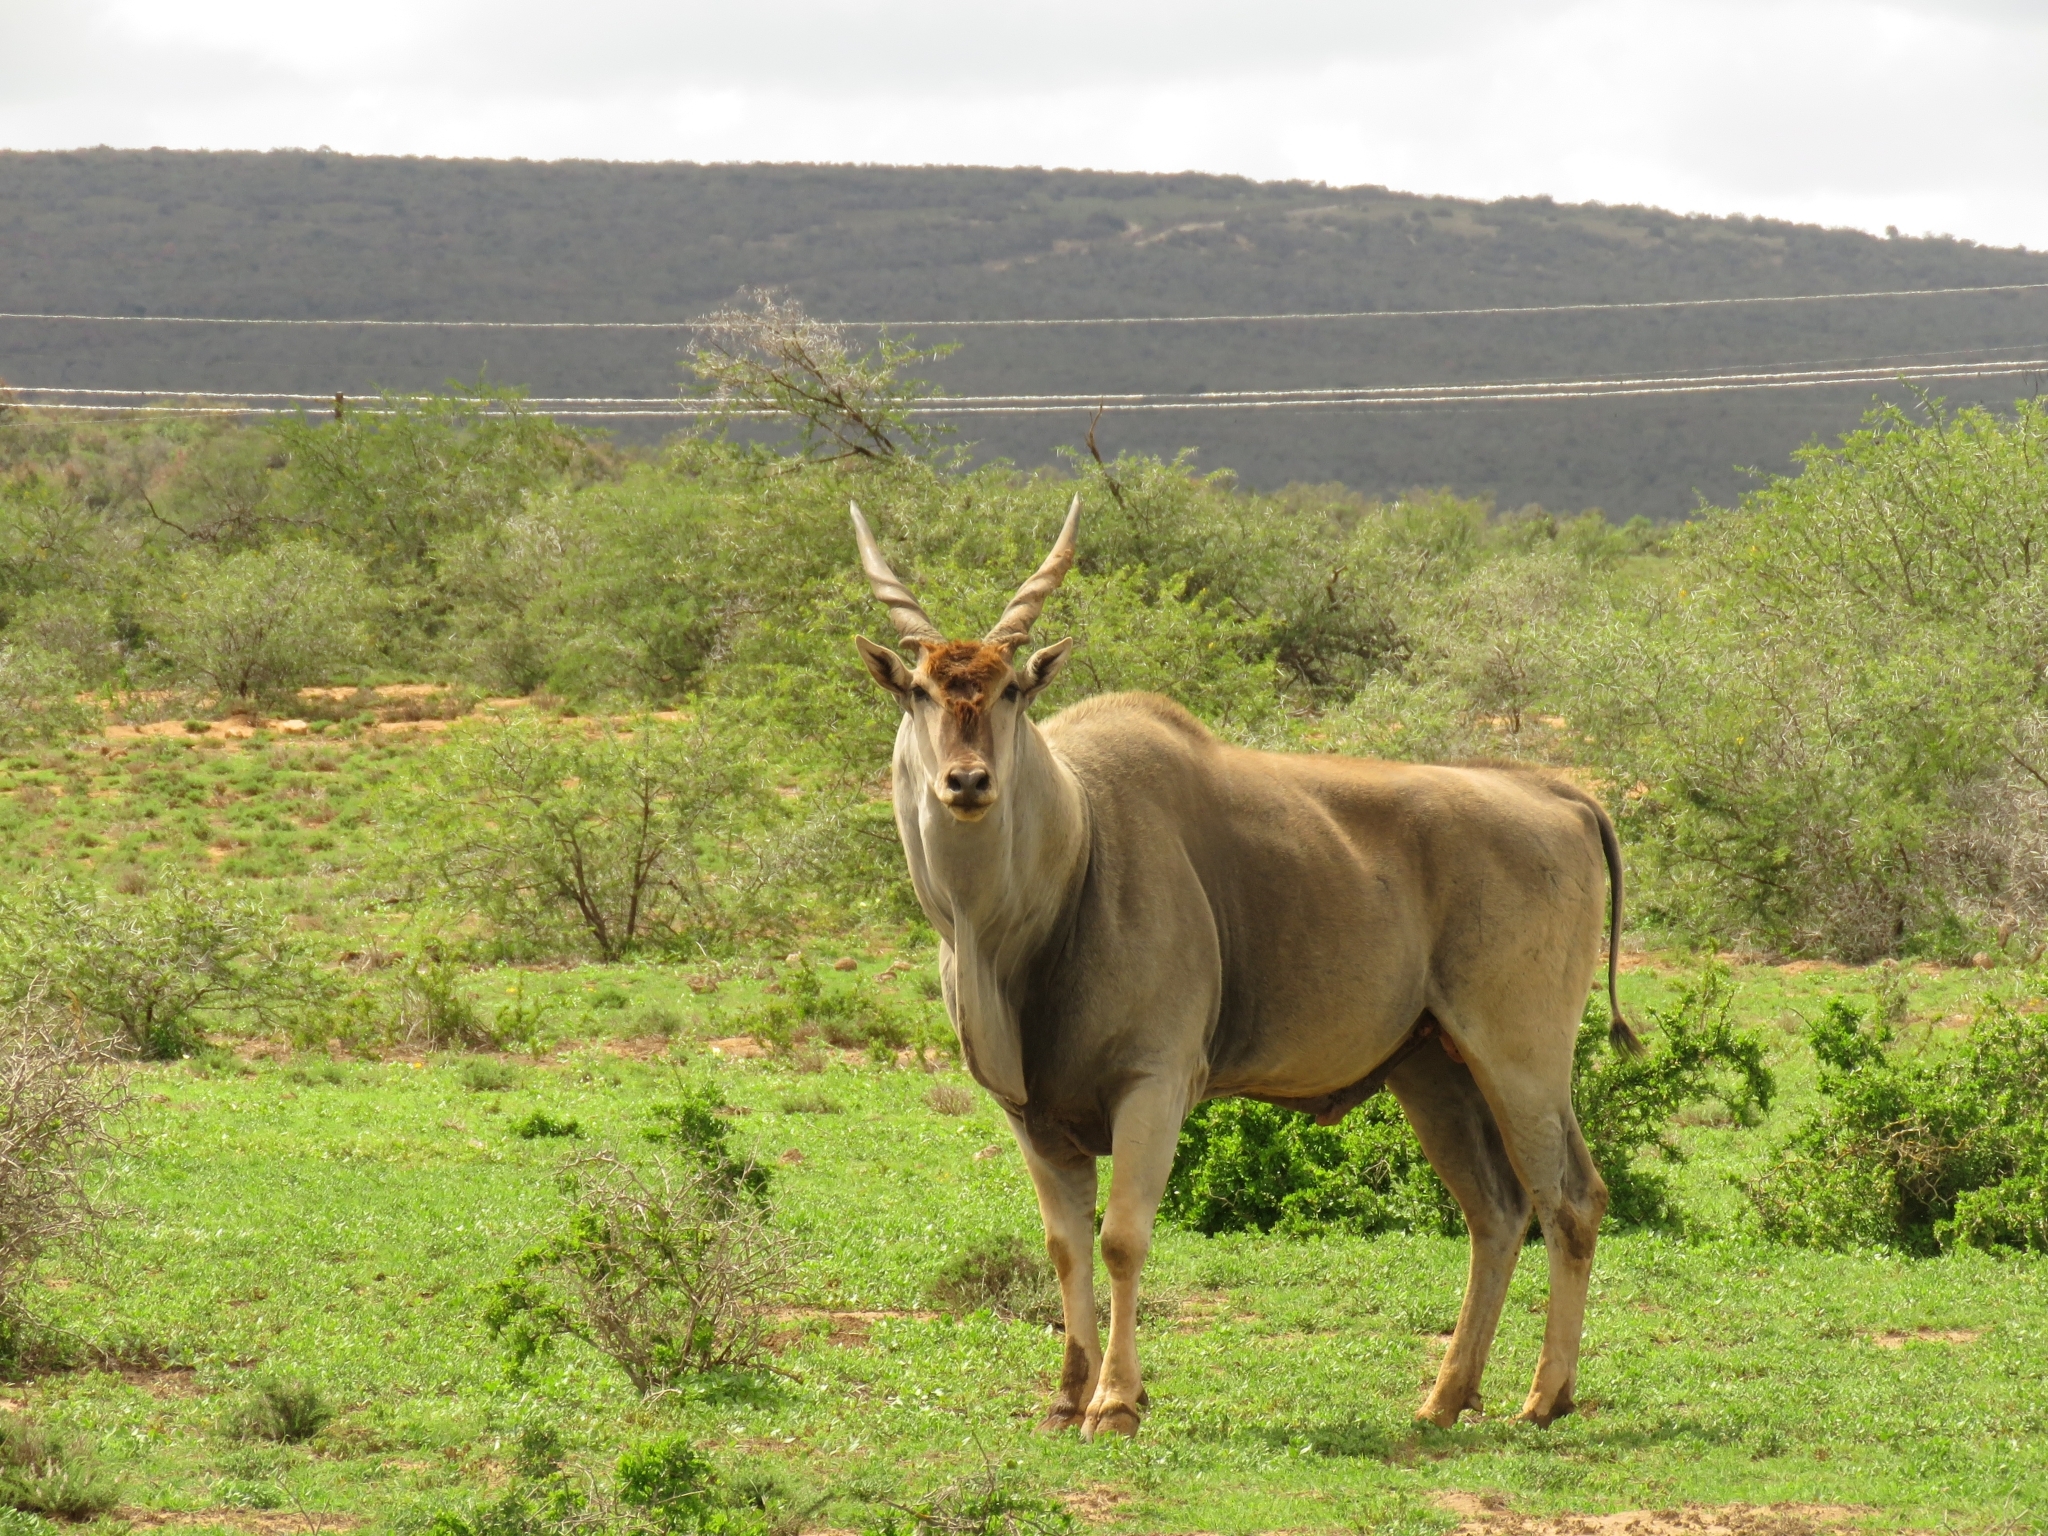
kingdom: Animalia
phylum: Chordata
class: Mammalia
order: Artiodactyla
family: Bovidae
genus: Taurotragus
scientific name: Taurotragus oryx
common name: Common eland
